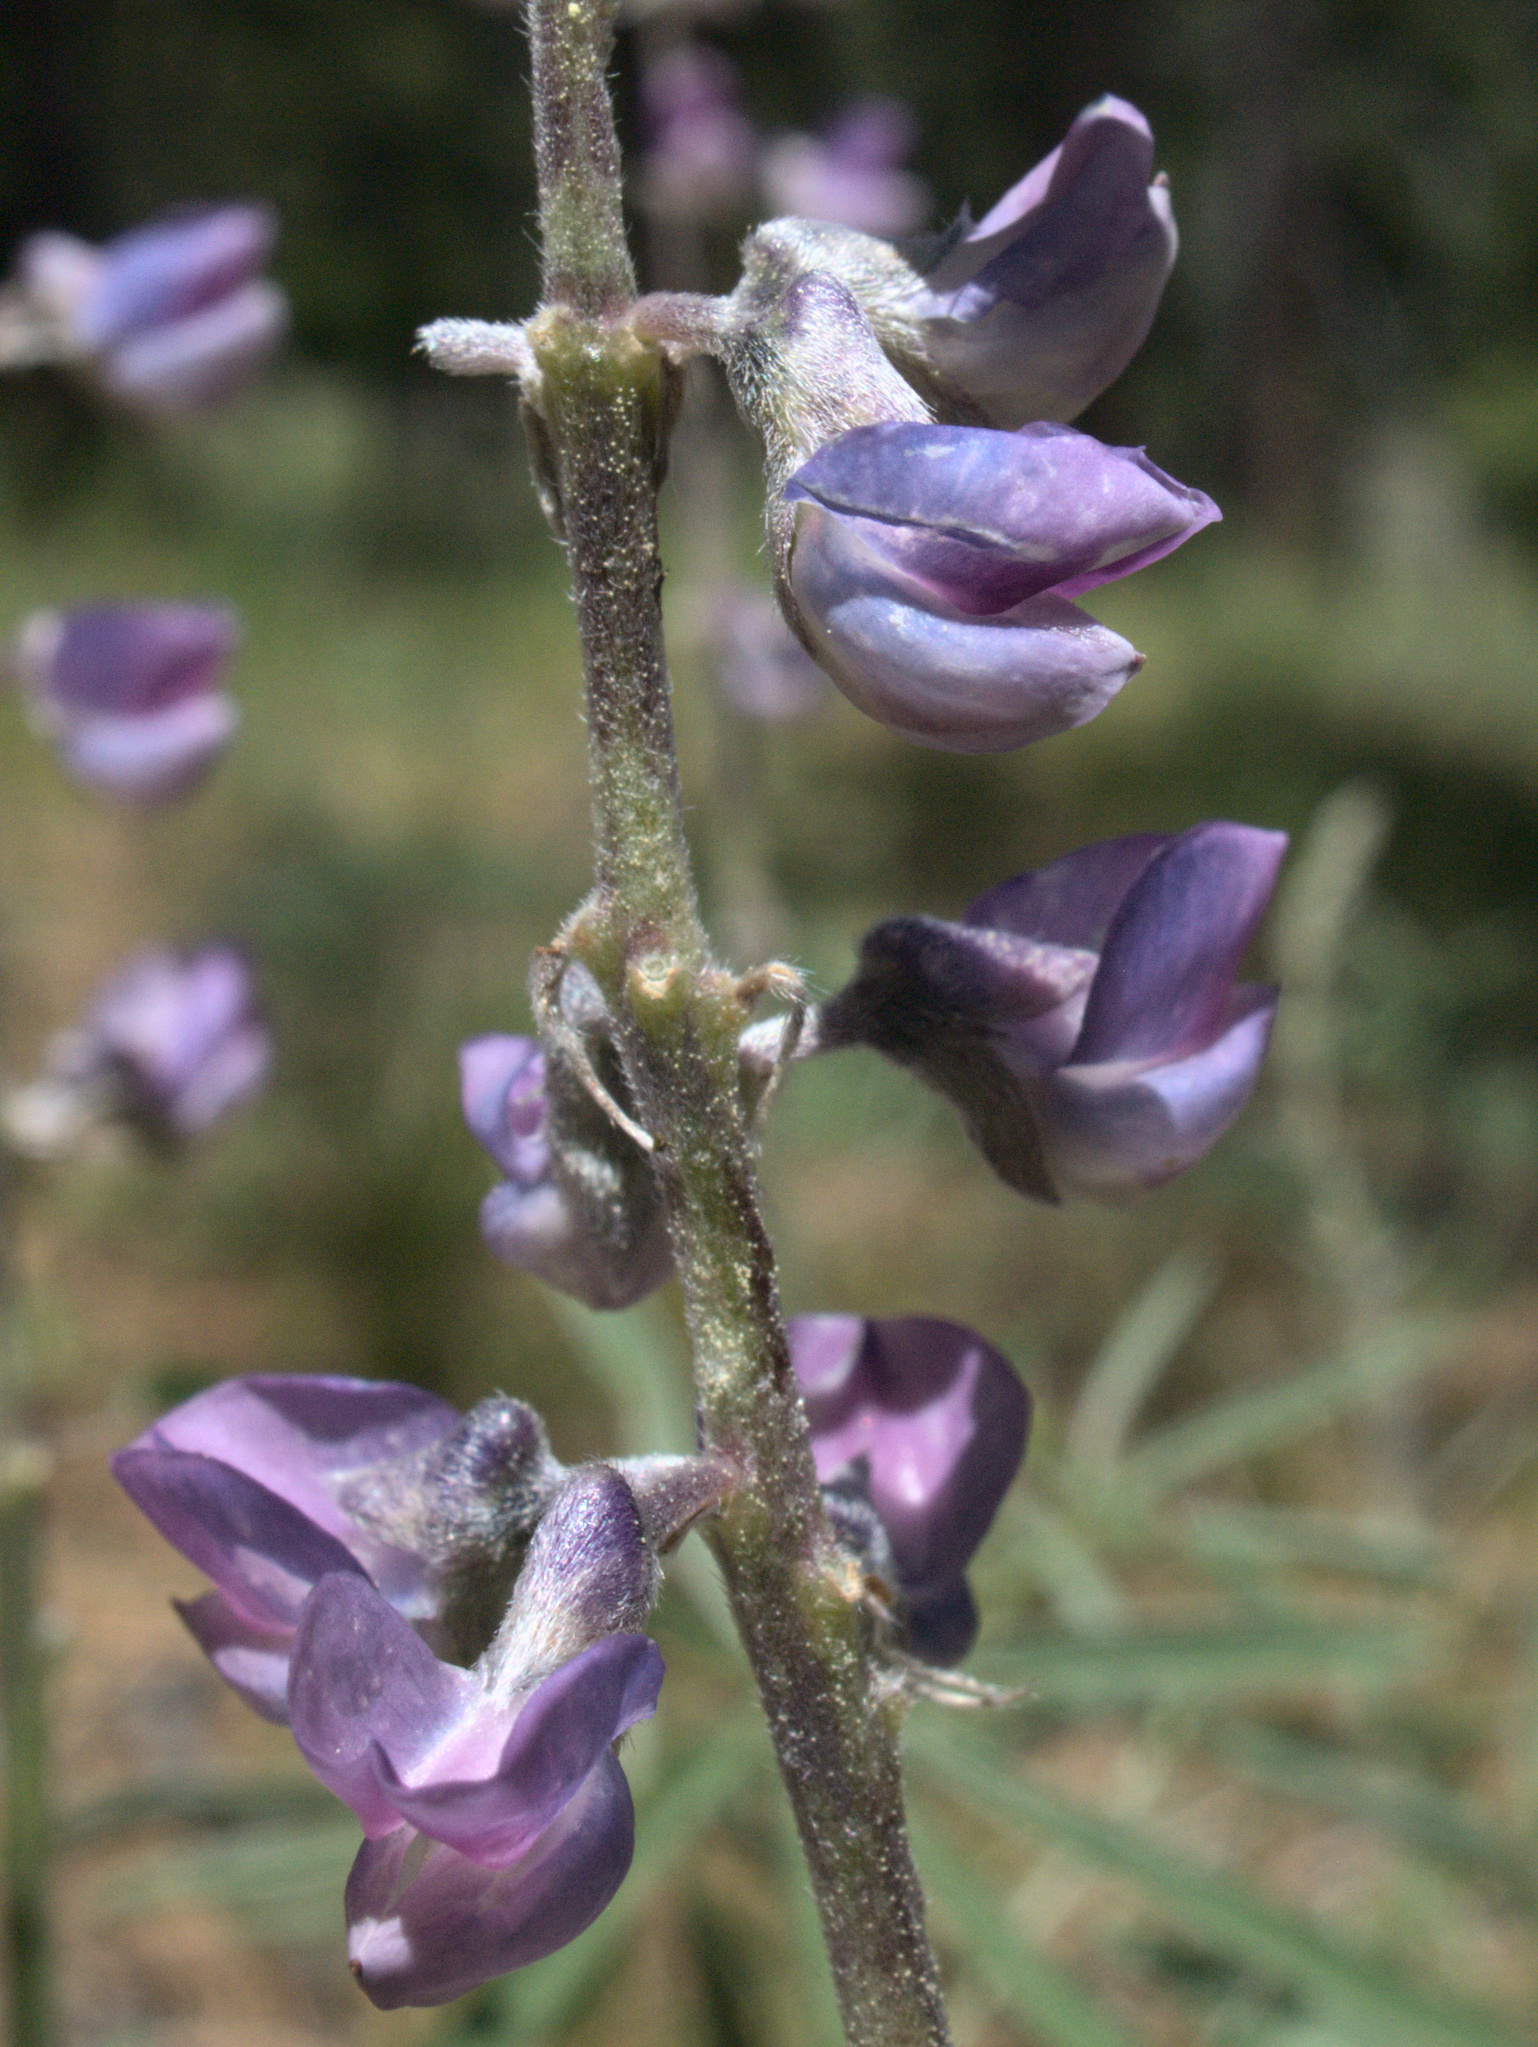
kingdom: Plantae
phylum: Tracheophyta
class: Magnoliopsida
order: Fabales
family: Fabaceae
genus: Lupinus
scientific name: Lupinus caudatus
